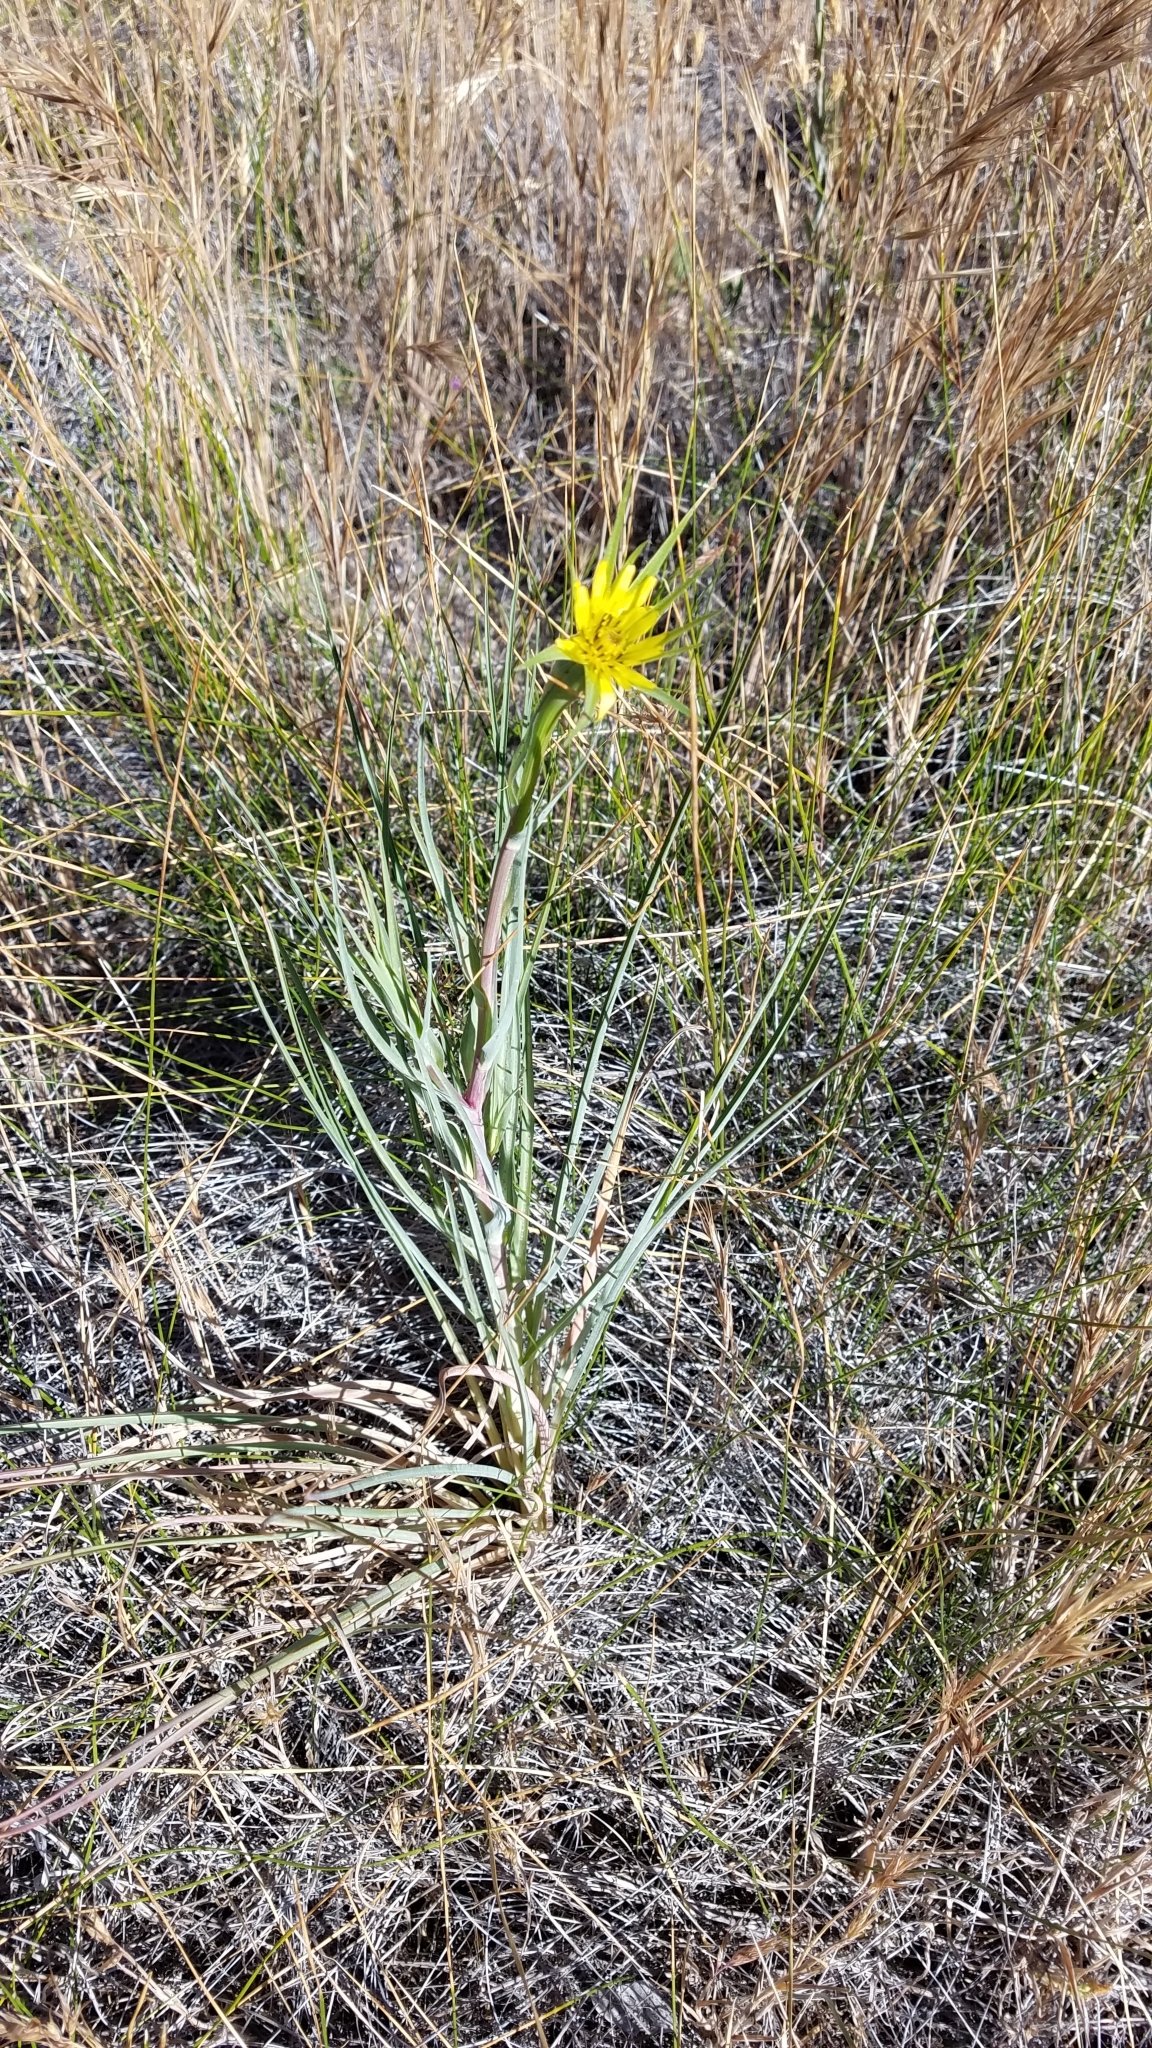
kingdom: Plantae
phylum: Tracheophyta
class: Magnoliopsida
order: Asterales
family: Asteraceae
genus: Tragopogon
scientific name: Tragopogon dubius
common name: Yellow salsify
